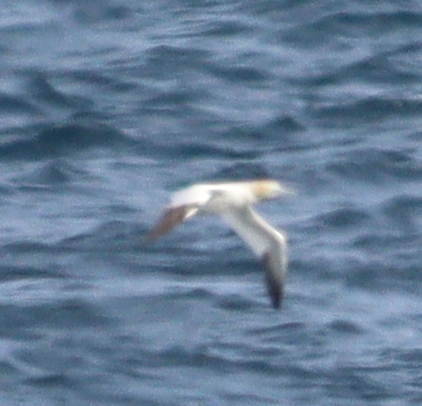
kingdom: Animalia
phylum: Chordata
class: Aves
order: Suliformes
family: Sulidae
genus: Morus
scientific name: Morus bassanus
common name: Northern gannet
